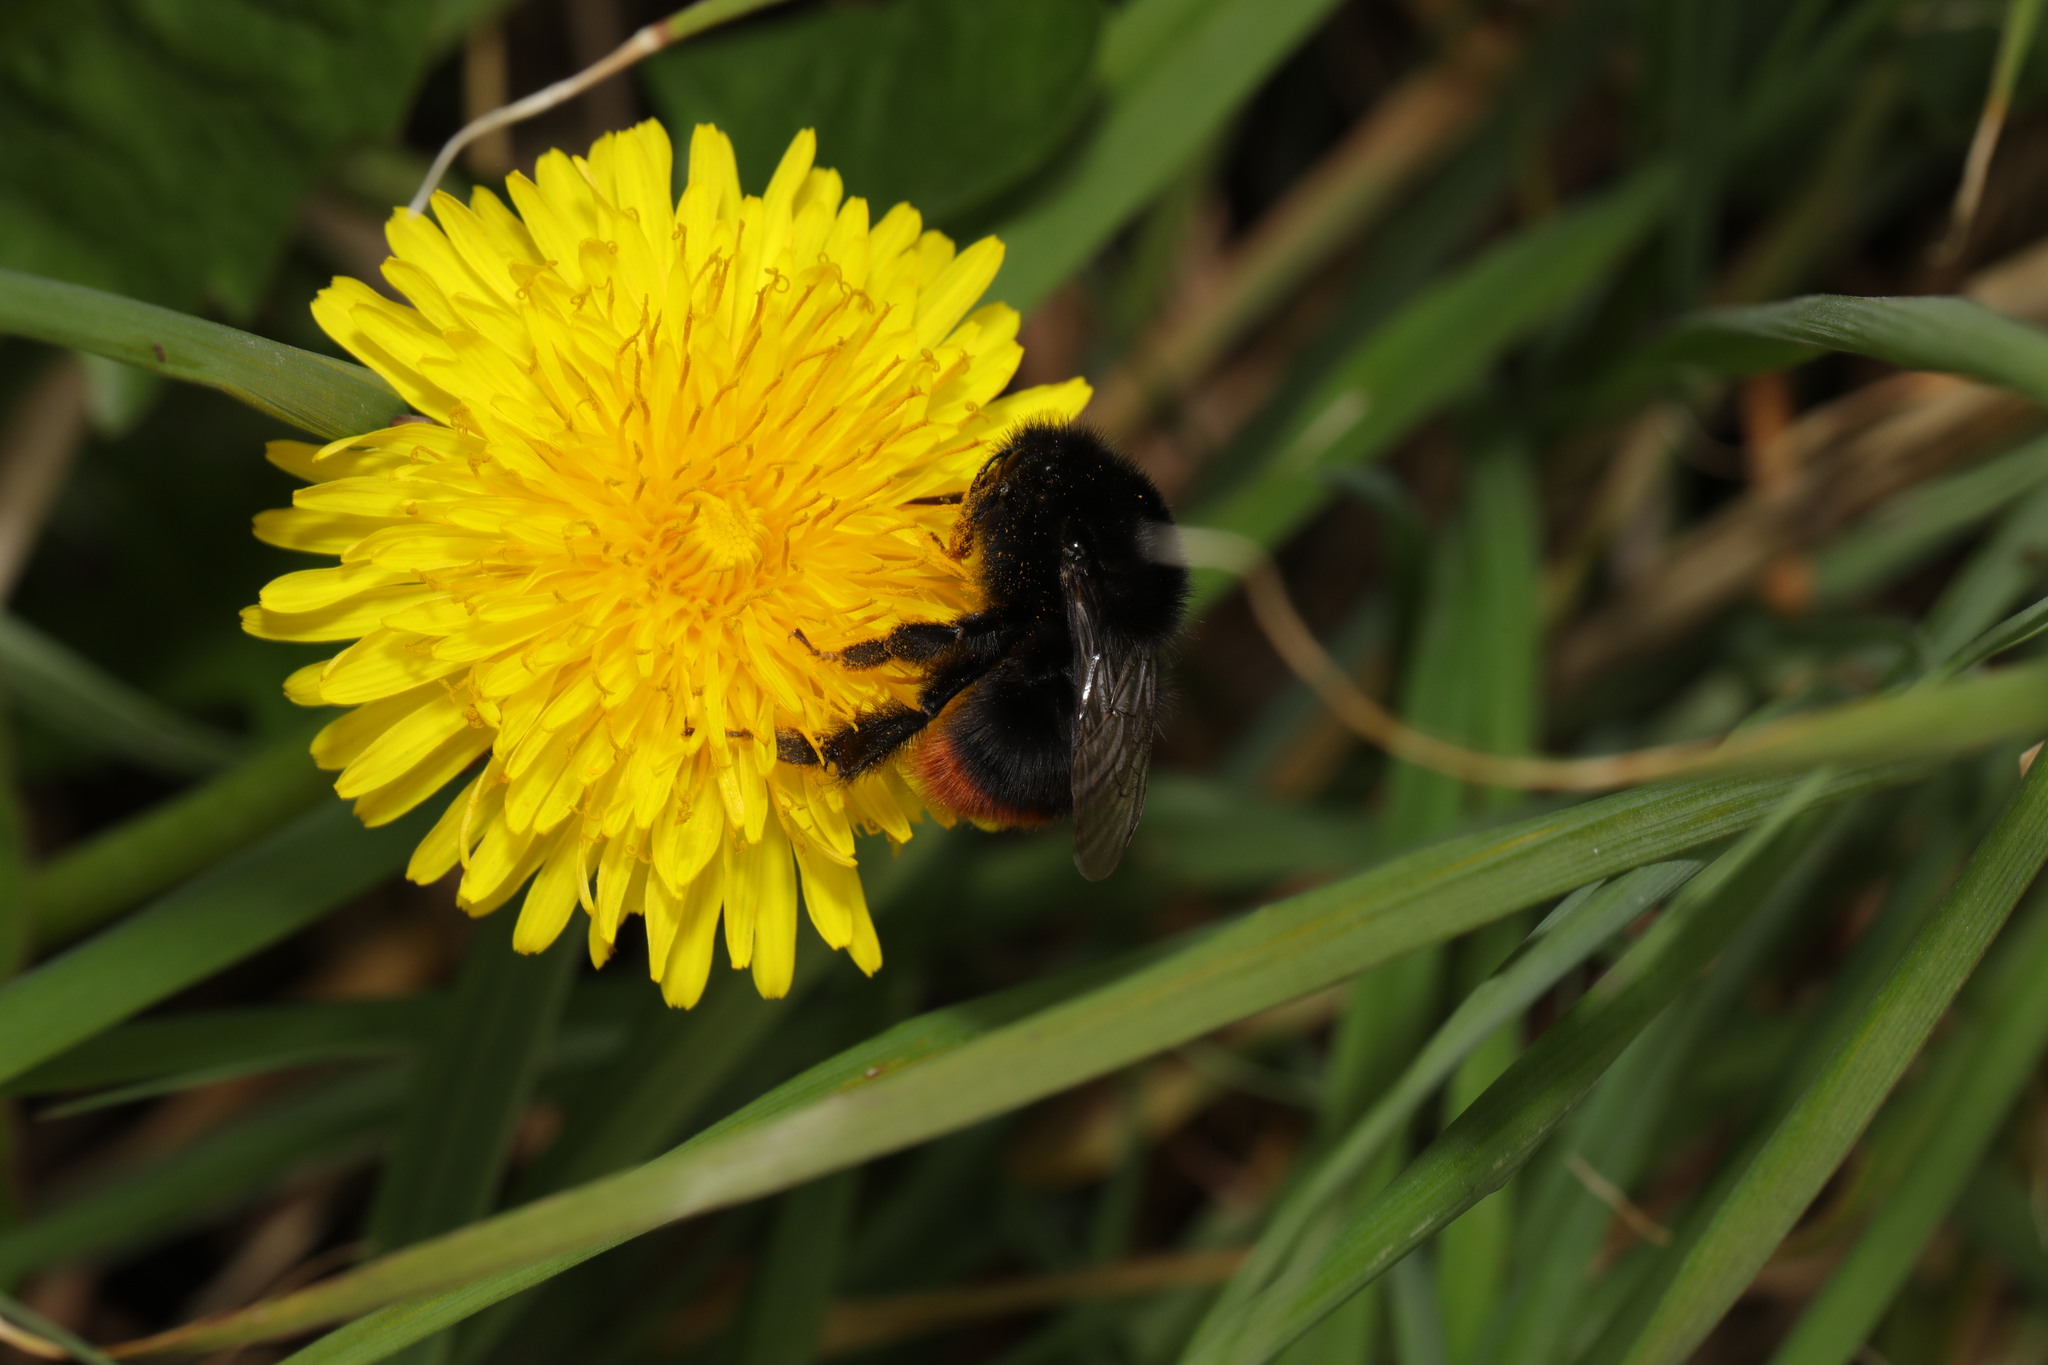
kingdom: Animalia
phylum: Arthropoda
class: Insecta
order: Hymenoptera
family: Apidae
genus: Bombus
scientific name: Bombus lapidarius
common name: Large red-tailed humble-bee
